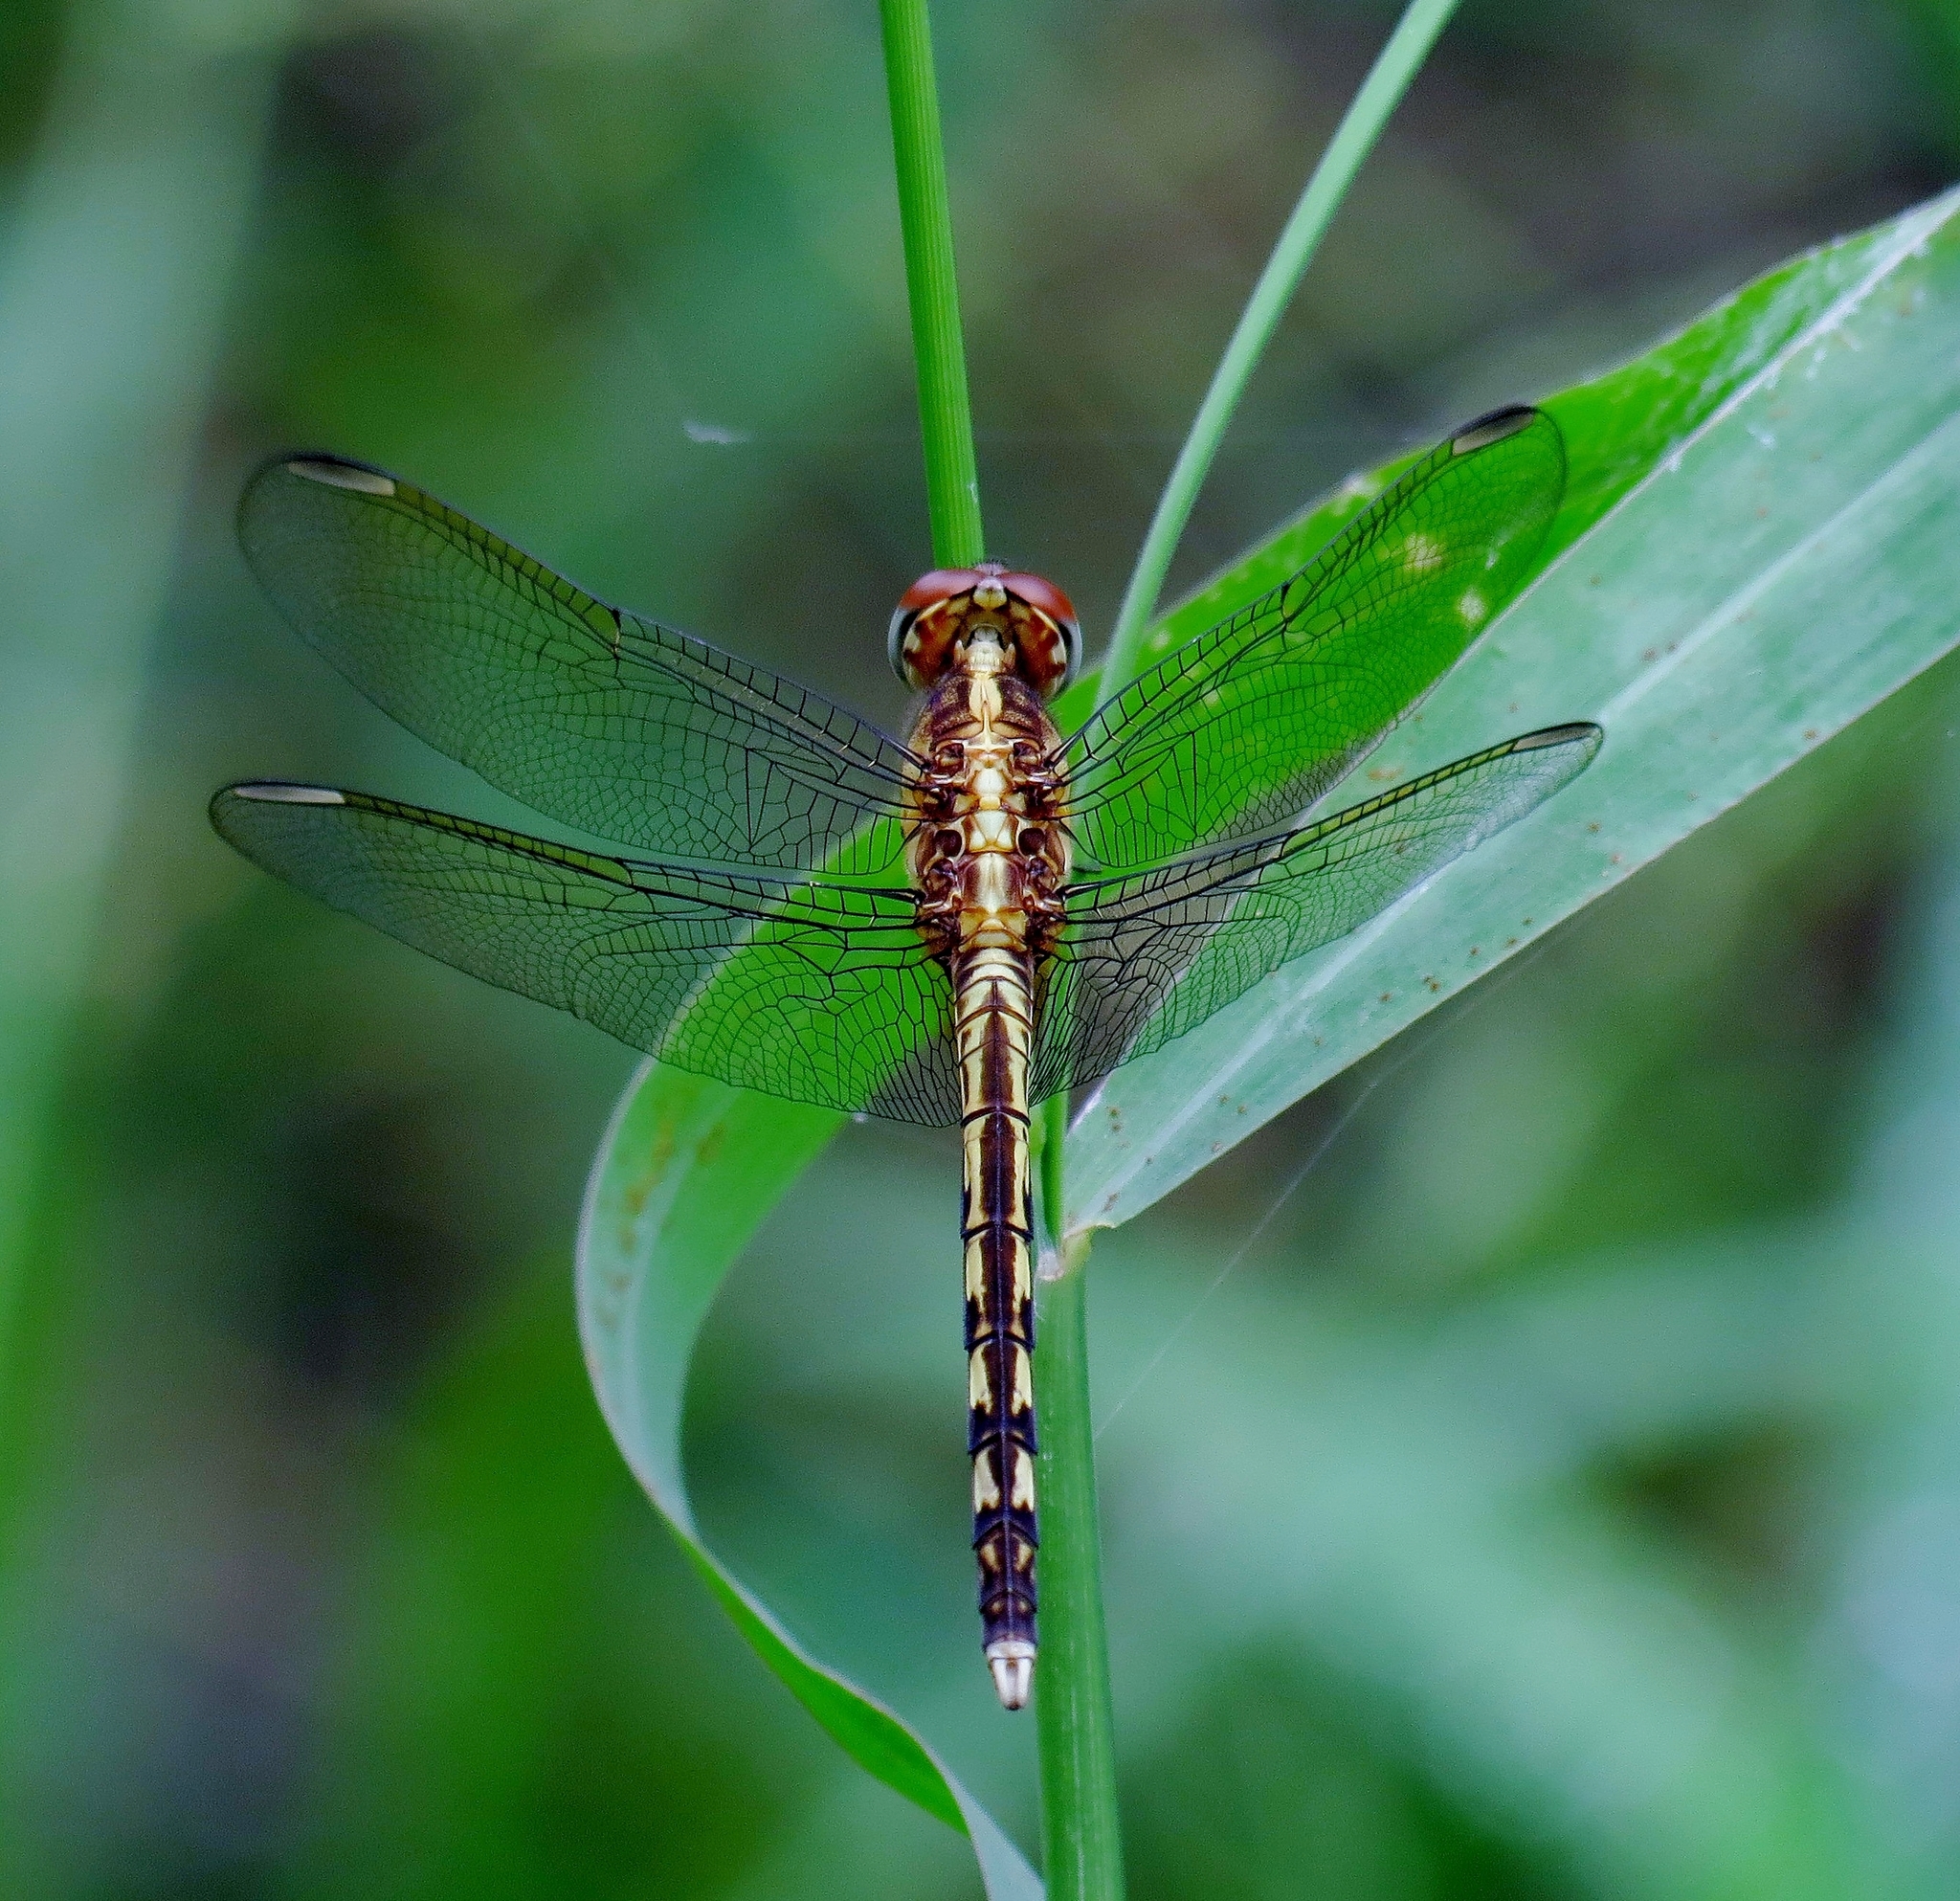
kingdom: Animalia
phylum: Arthropoda
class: Insecta
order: Odonata
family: Libellulidae
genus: Erythrodiplax
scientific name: Erythrodiplax umbrata
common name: Band-winged dragonlet
